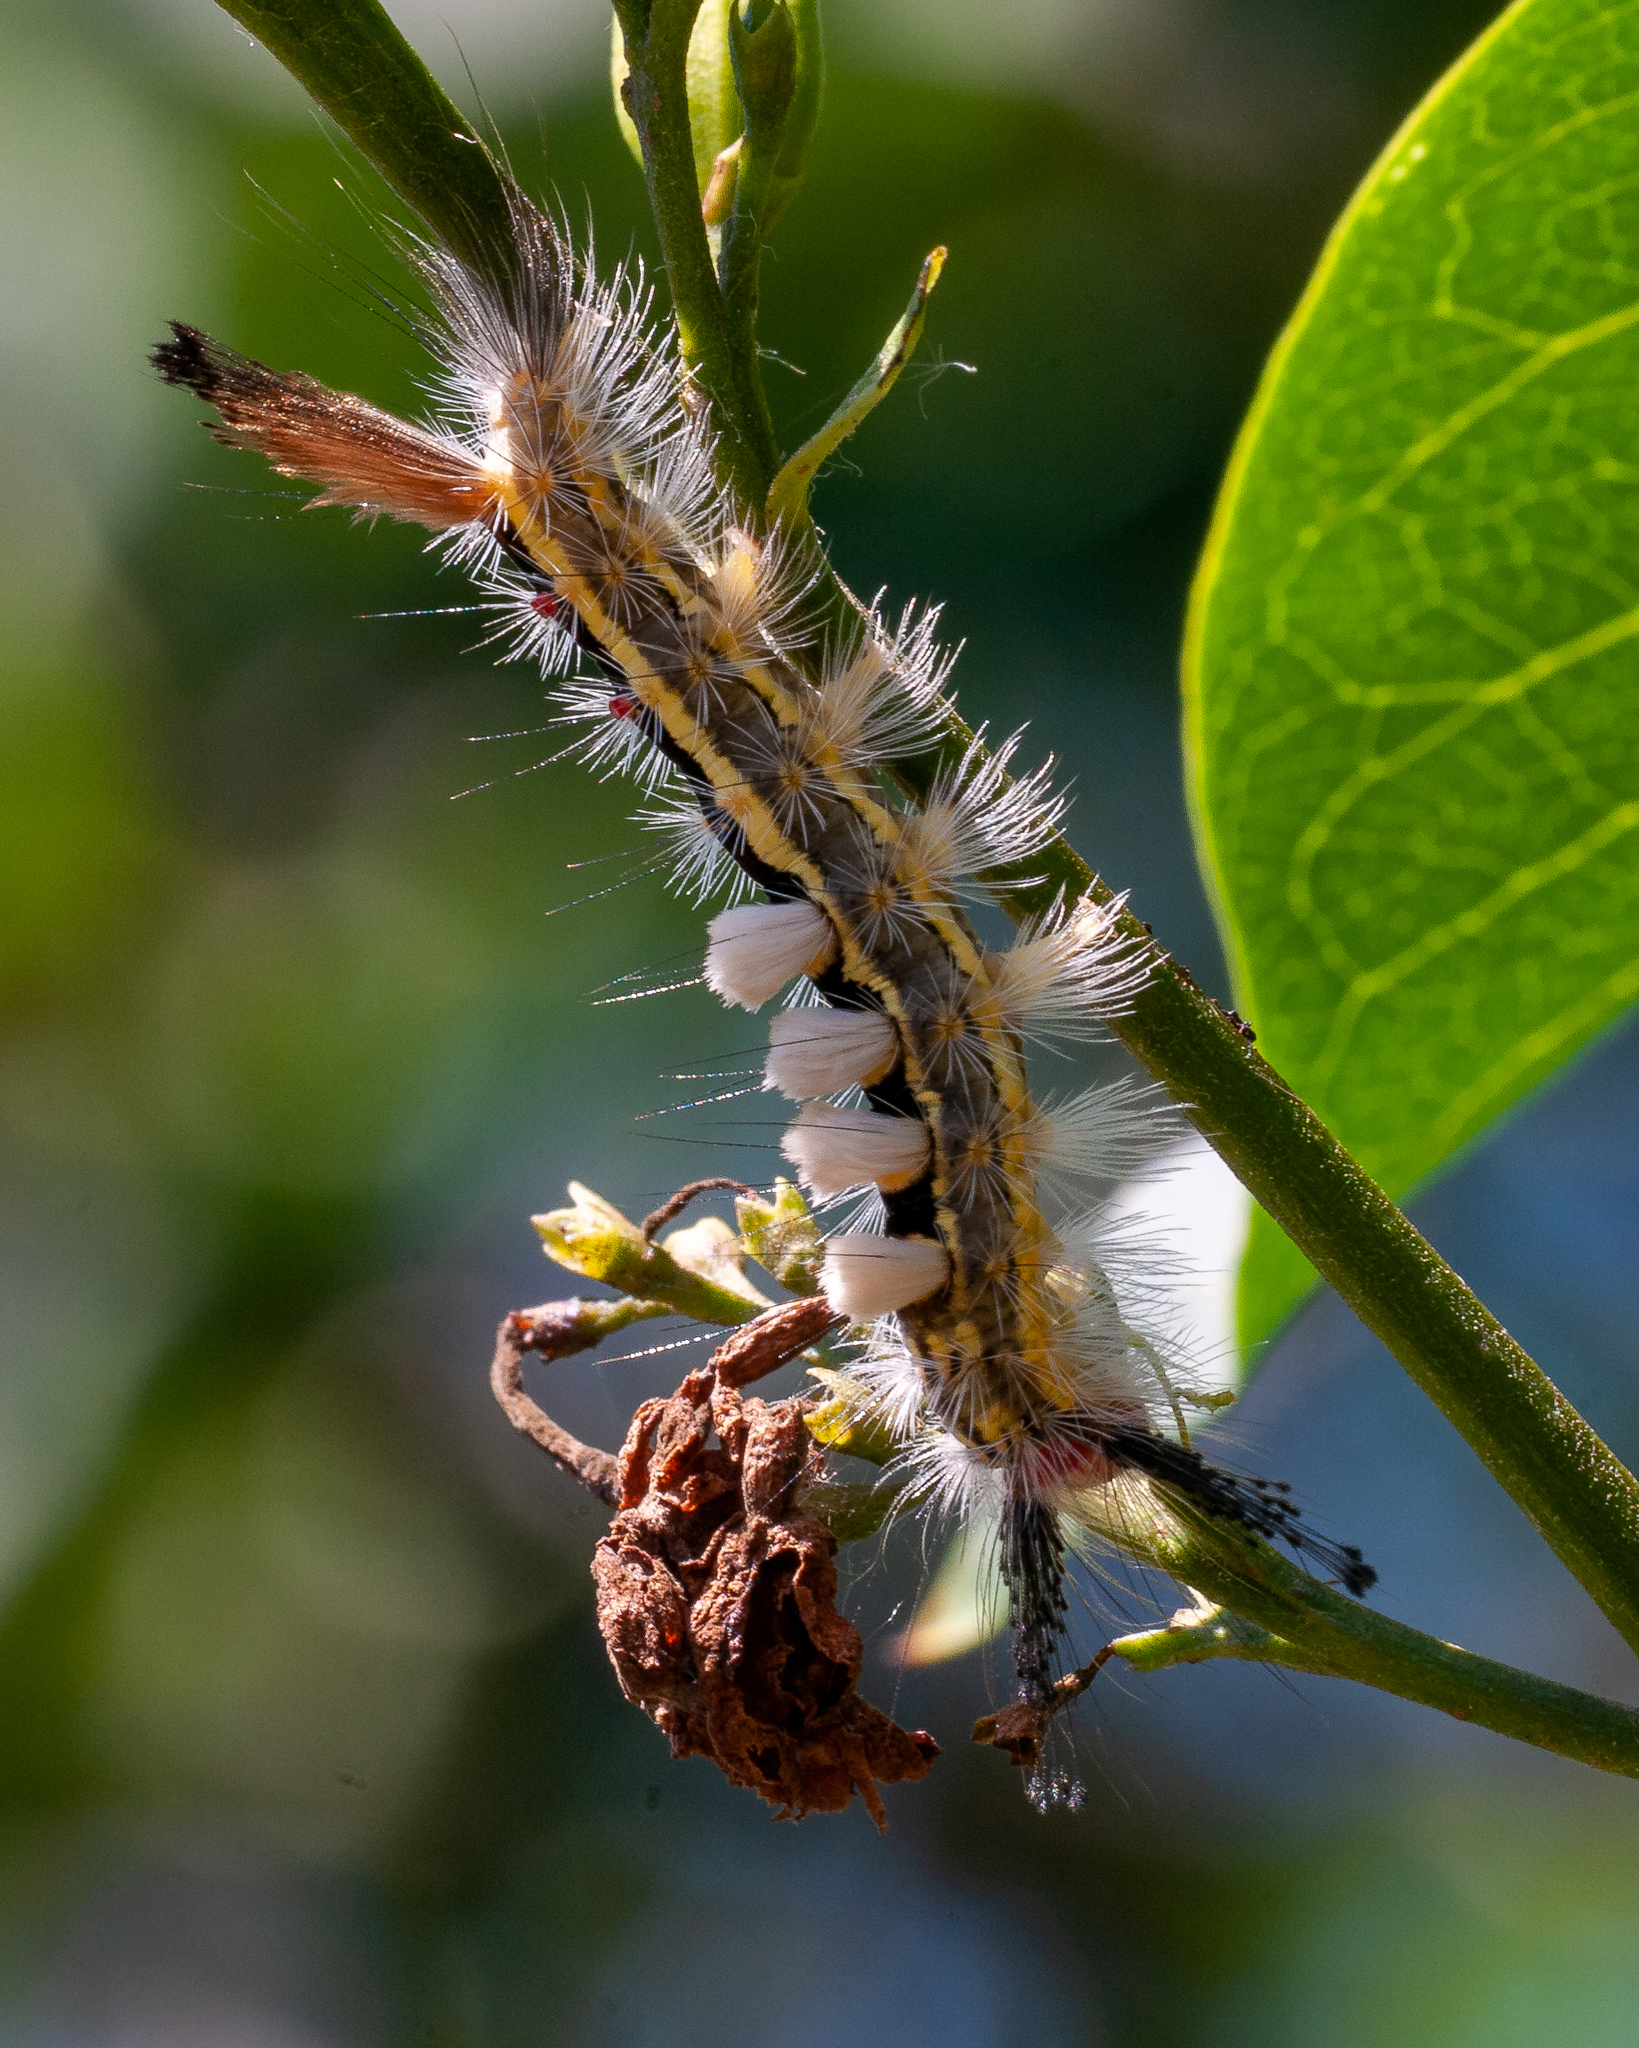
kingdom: Animalia
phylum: Arthropoda
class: Insecta
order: Lepidoptera
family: Erebidae
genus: Orgyia
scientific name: Orgyia leucostigma
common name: White-marked tussock moth
